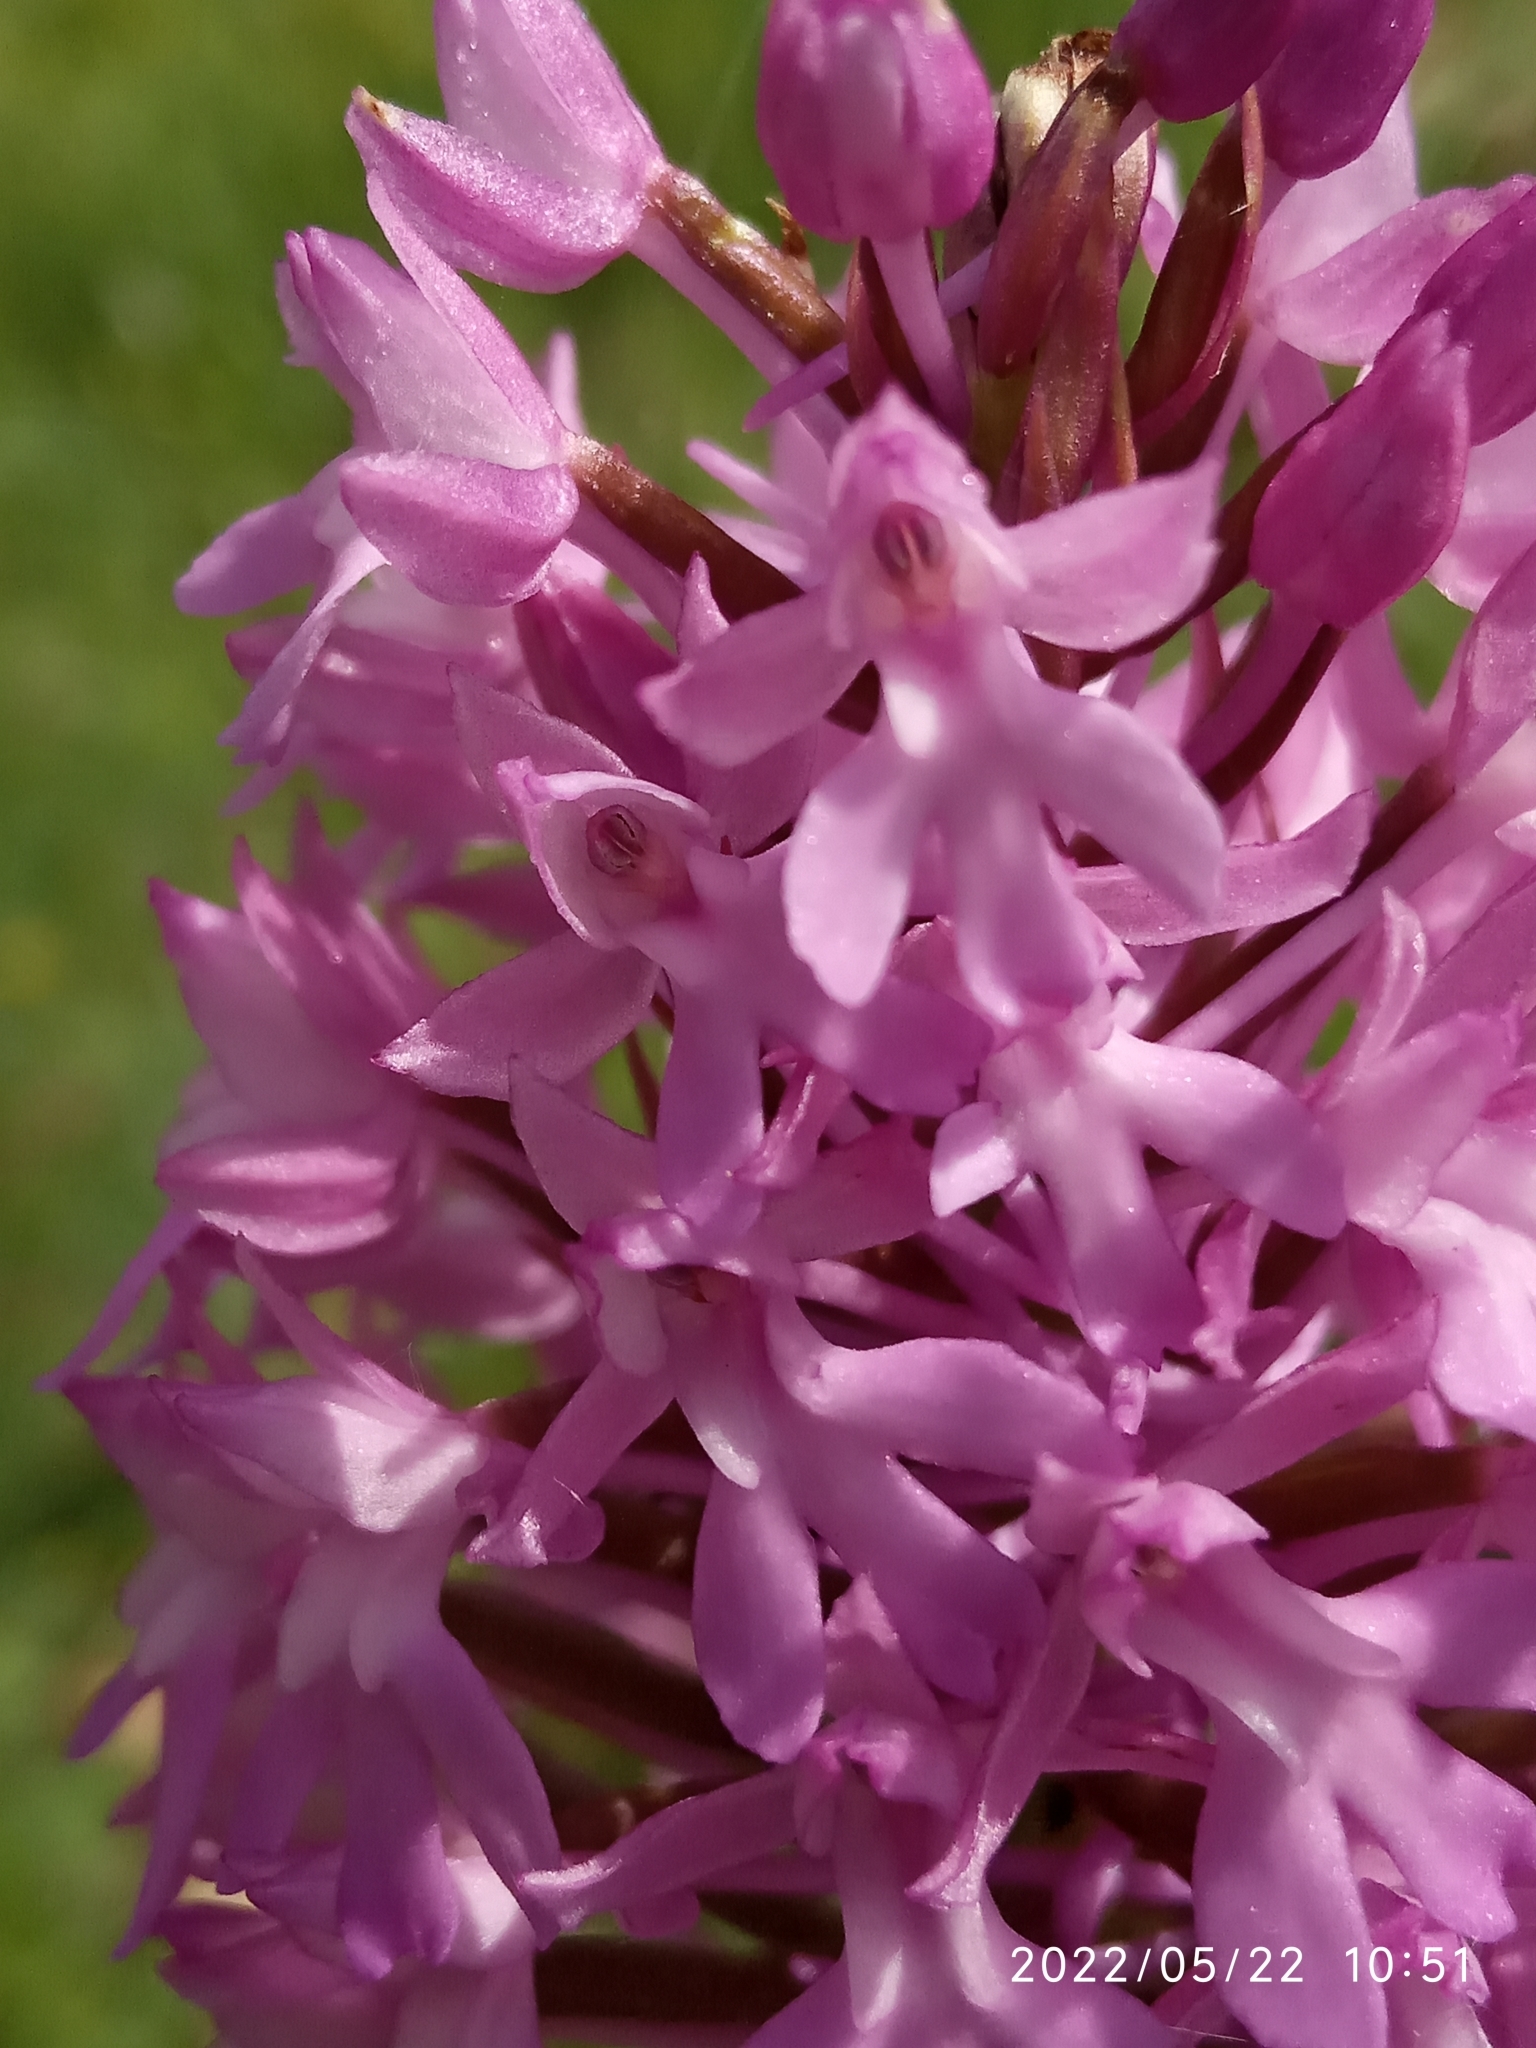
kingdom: Plantae
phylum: Tracheophyta
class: Liliopsida
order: Asparagales
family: Orchidaceae
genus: Anacamptis
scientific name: Anacamptis pyramidalis
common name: Pyramidal orchid
